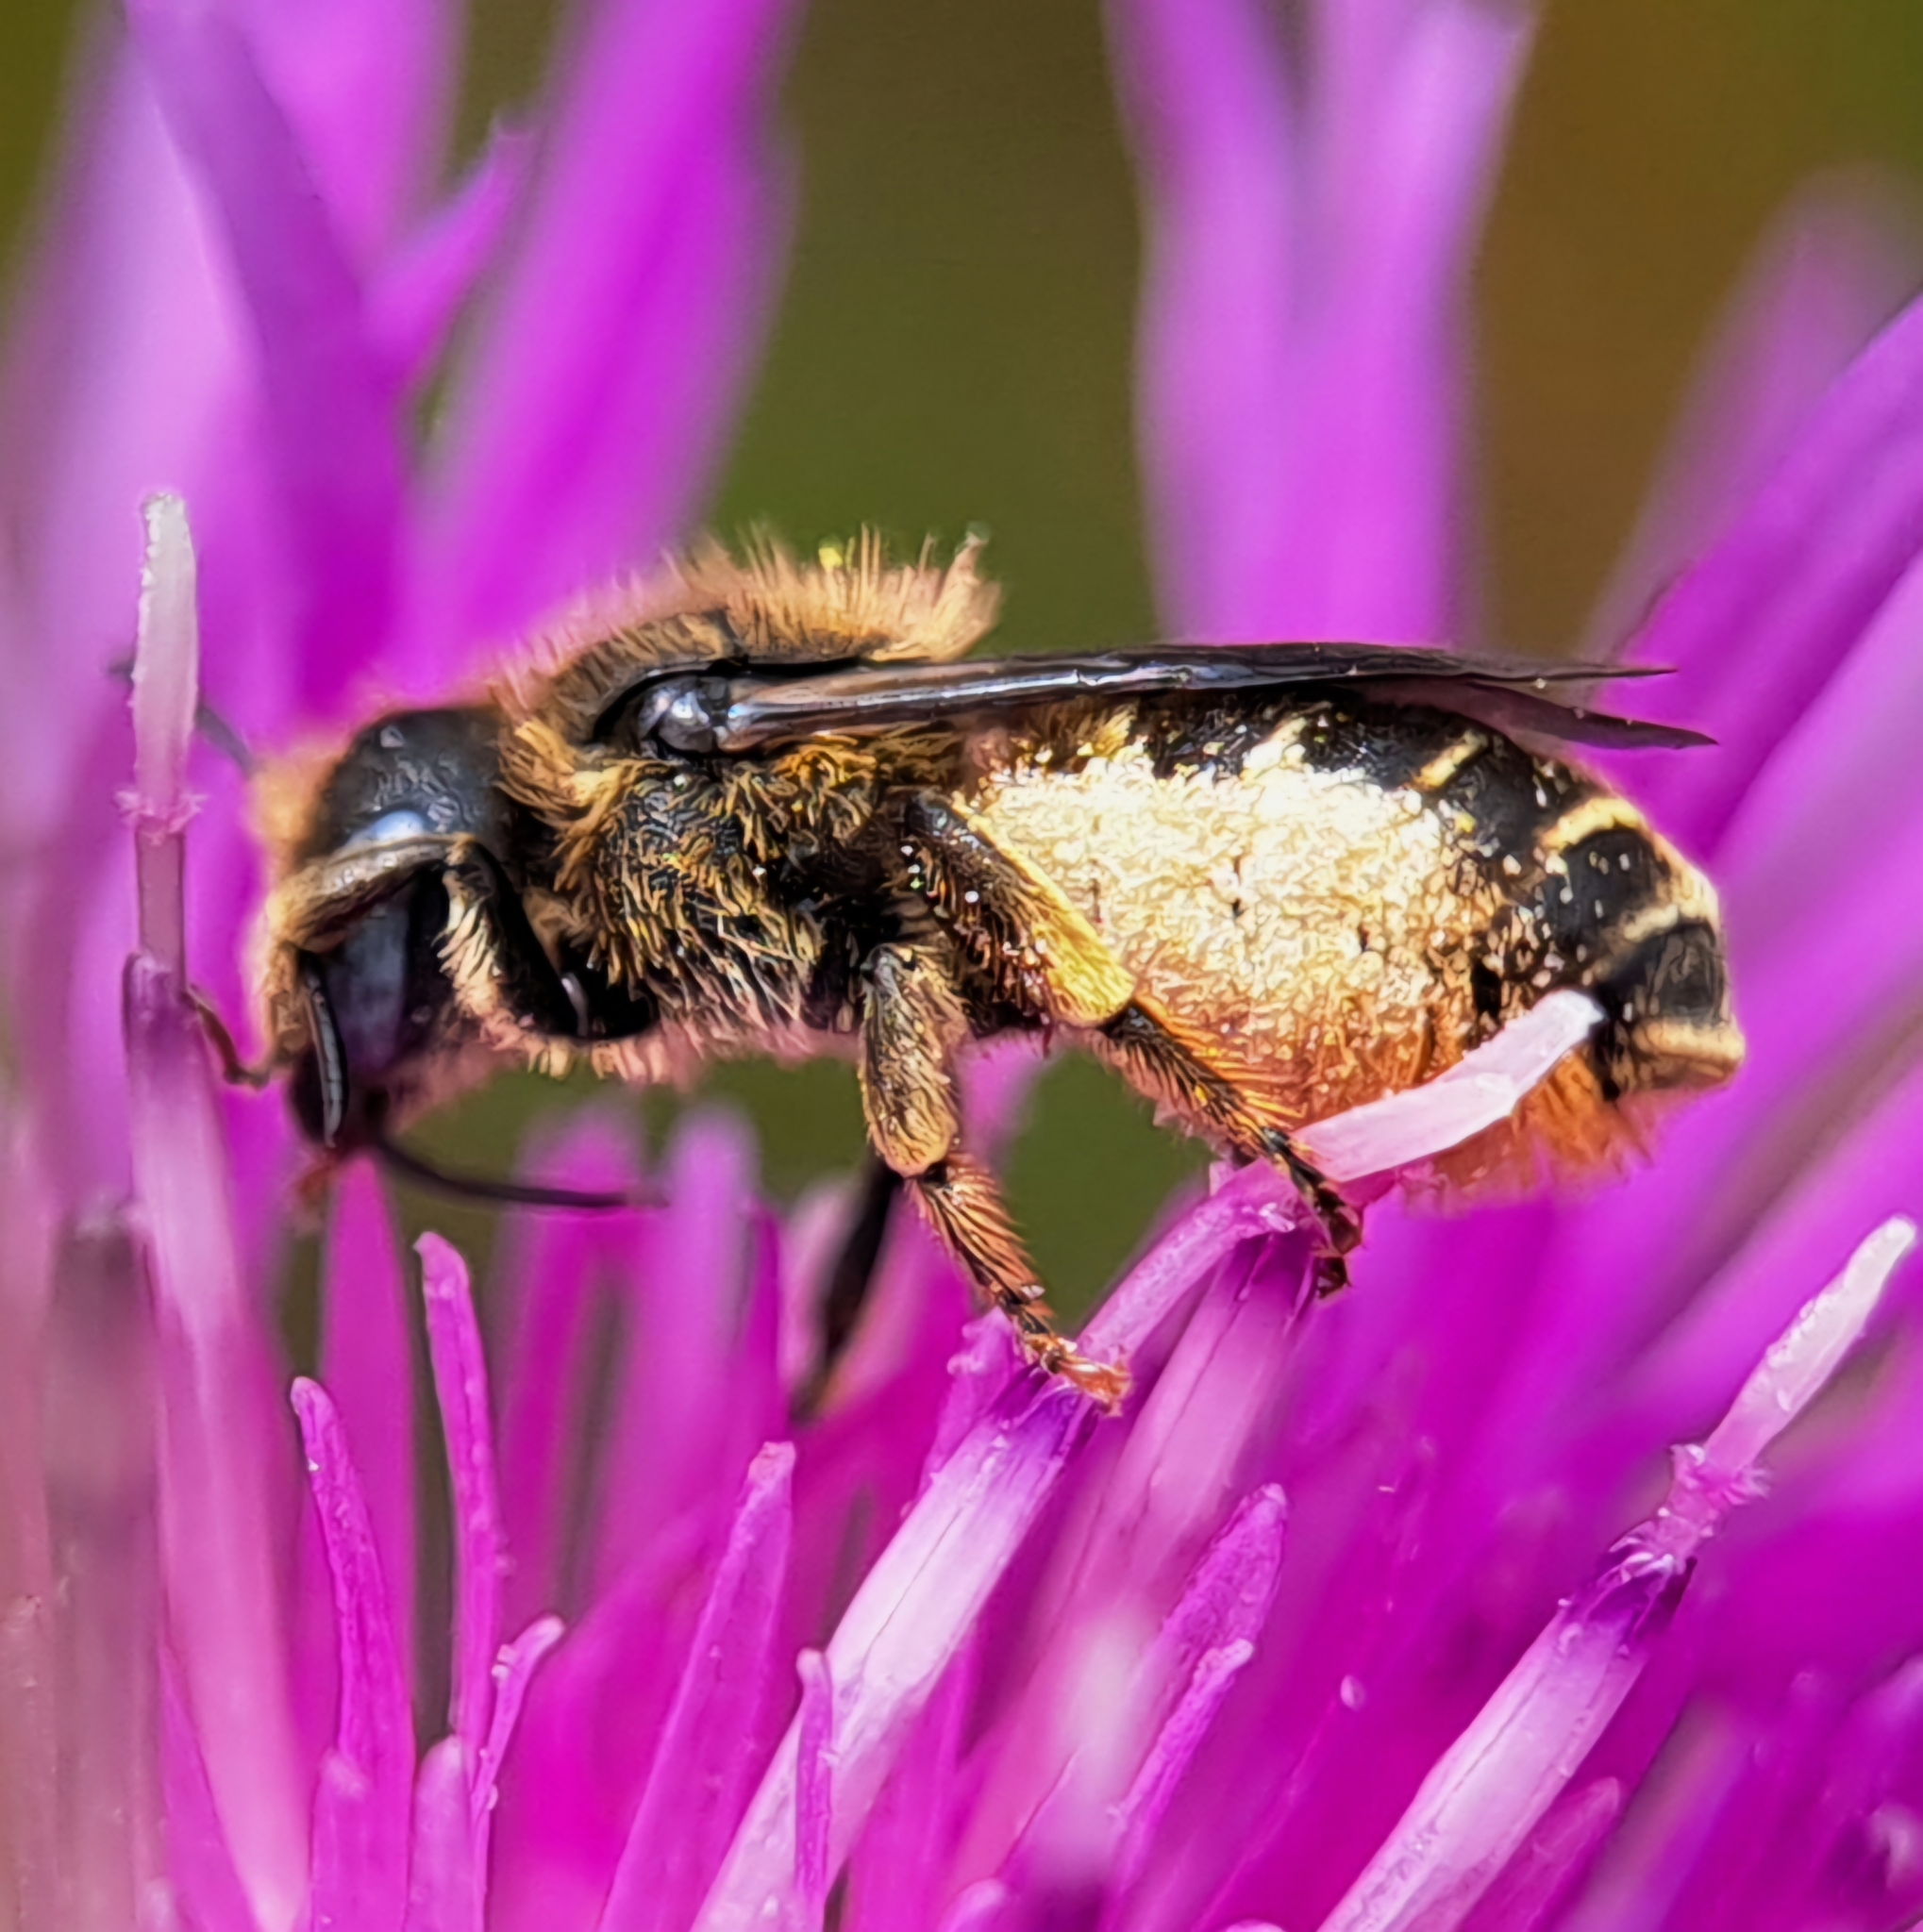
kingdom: Animalia
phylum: Arthropoda
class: Insecta
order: Hymenoptera
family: Megachilidae
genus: Osmia
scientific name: Osmia spinulosa
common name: Spined mason bee
